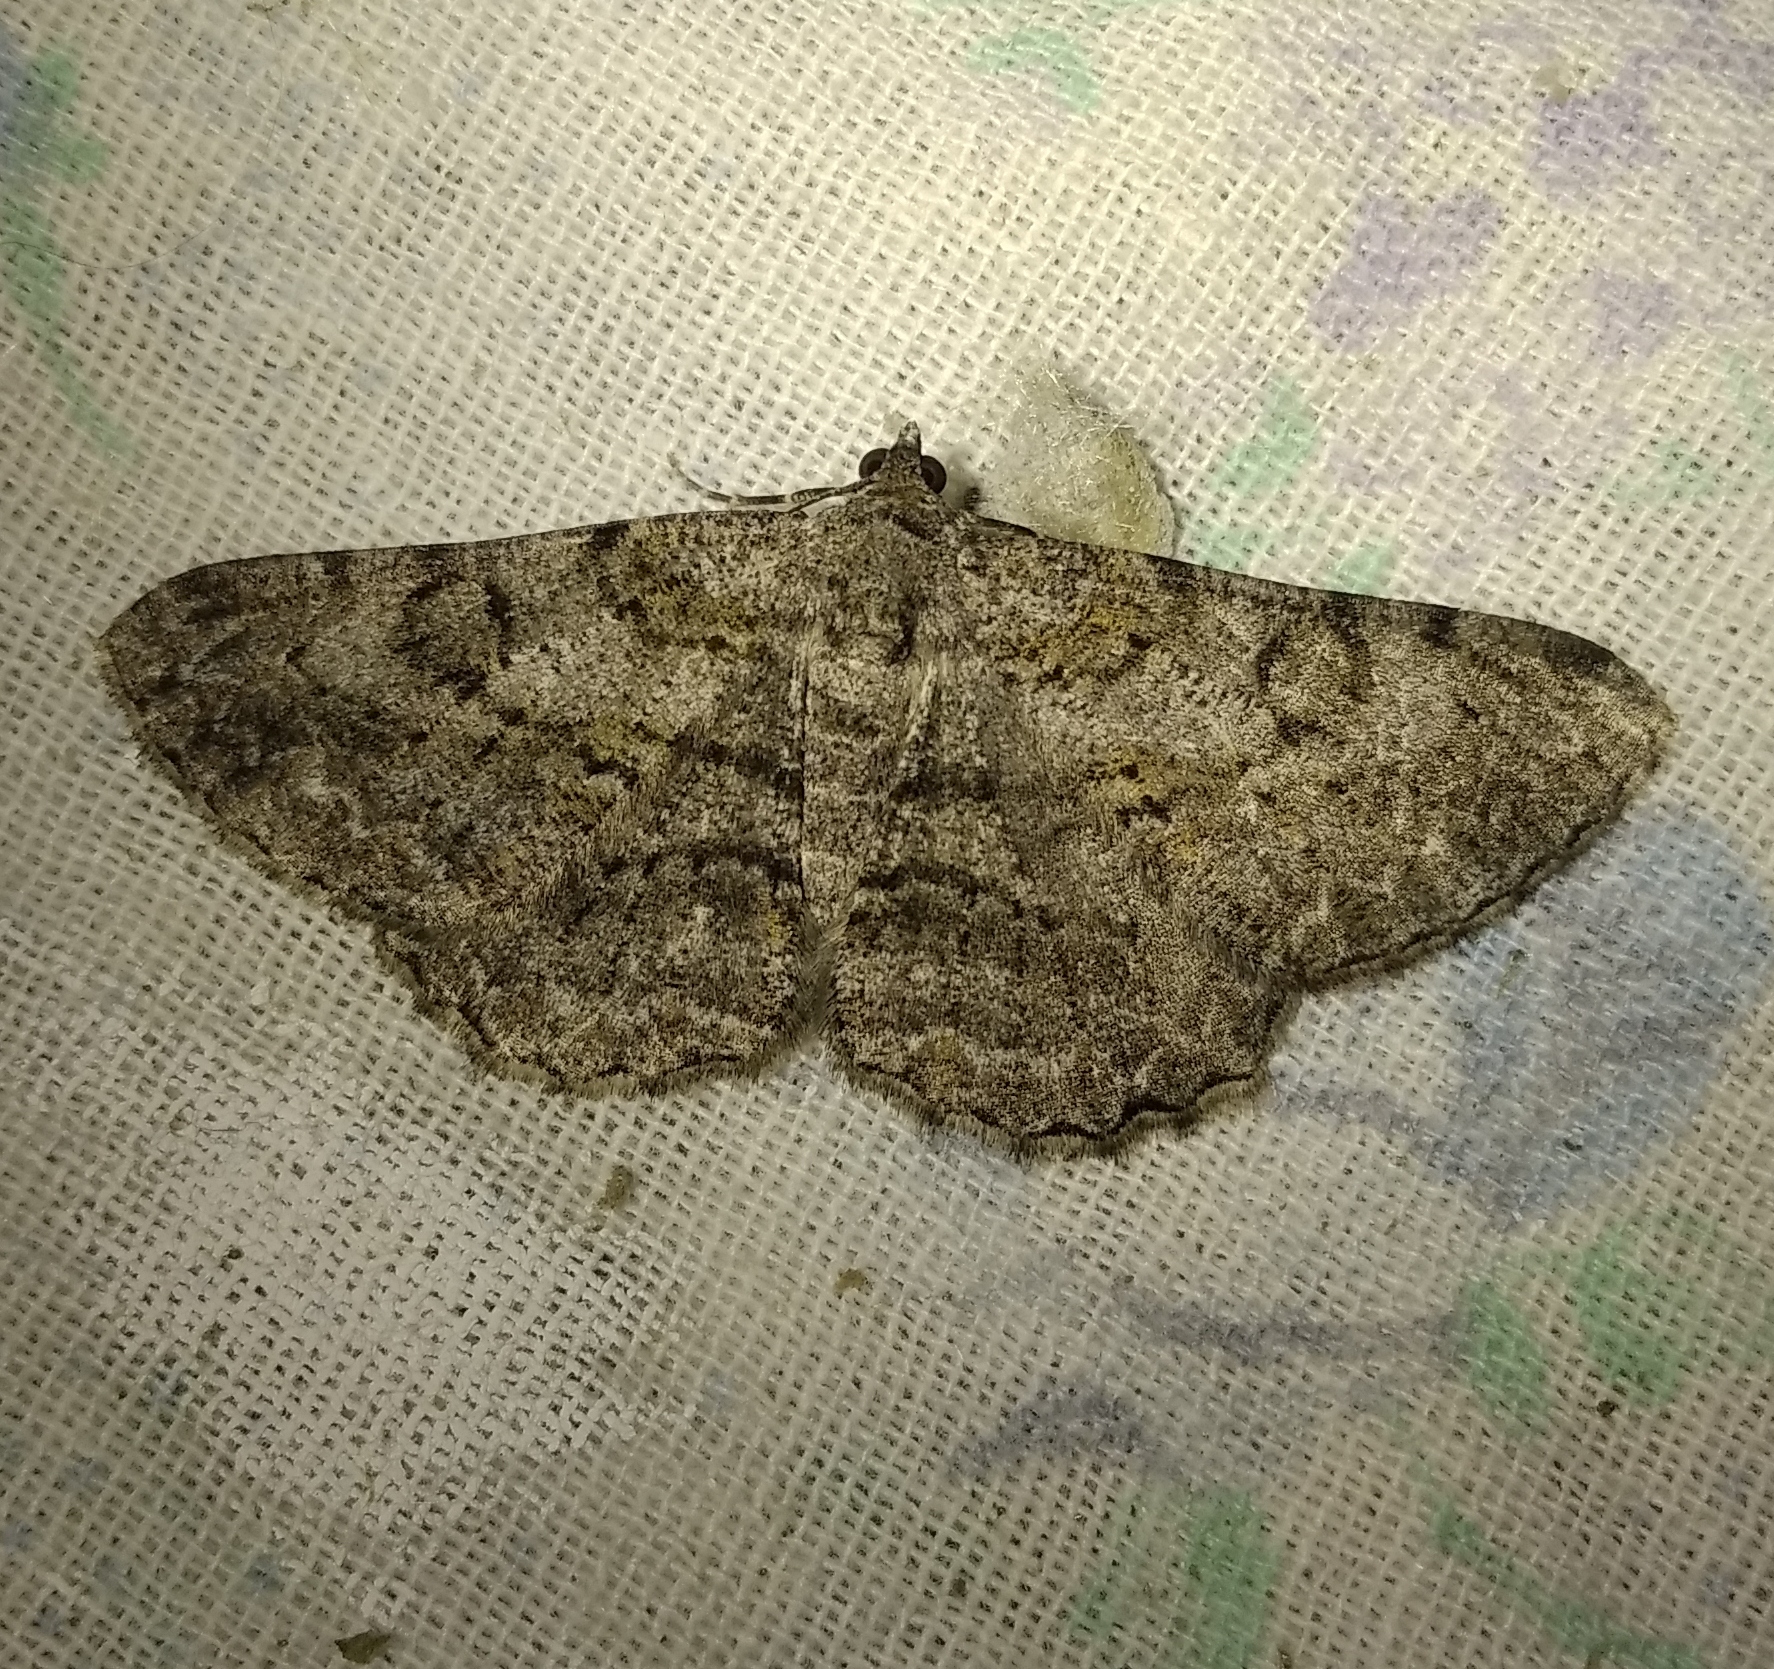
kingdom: Animalia
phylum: Arthropoda
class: Insecta
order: Lepidoptera
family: Geometridae
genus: Peribatodes
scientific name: Peribatodes rhomboidaria
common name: Willow beauty
